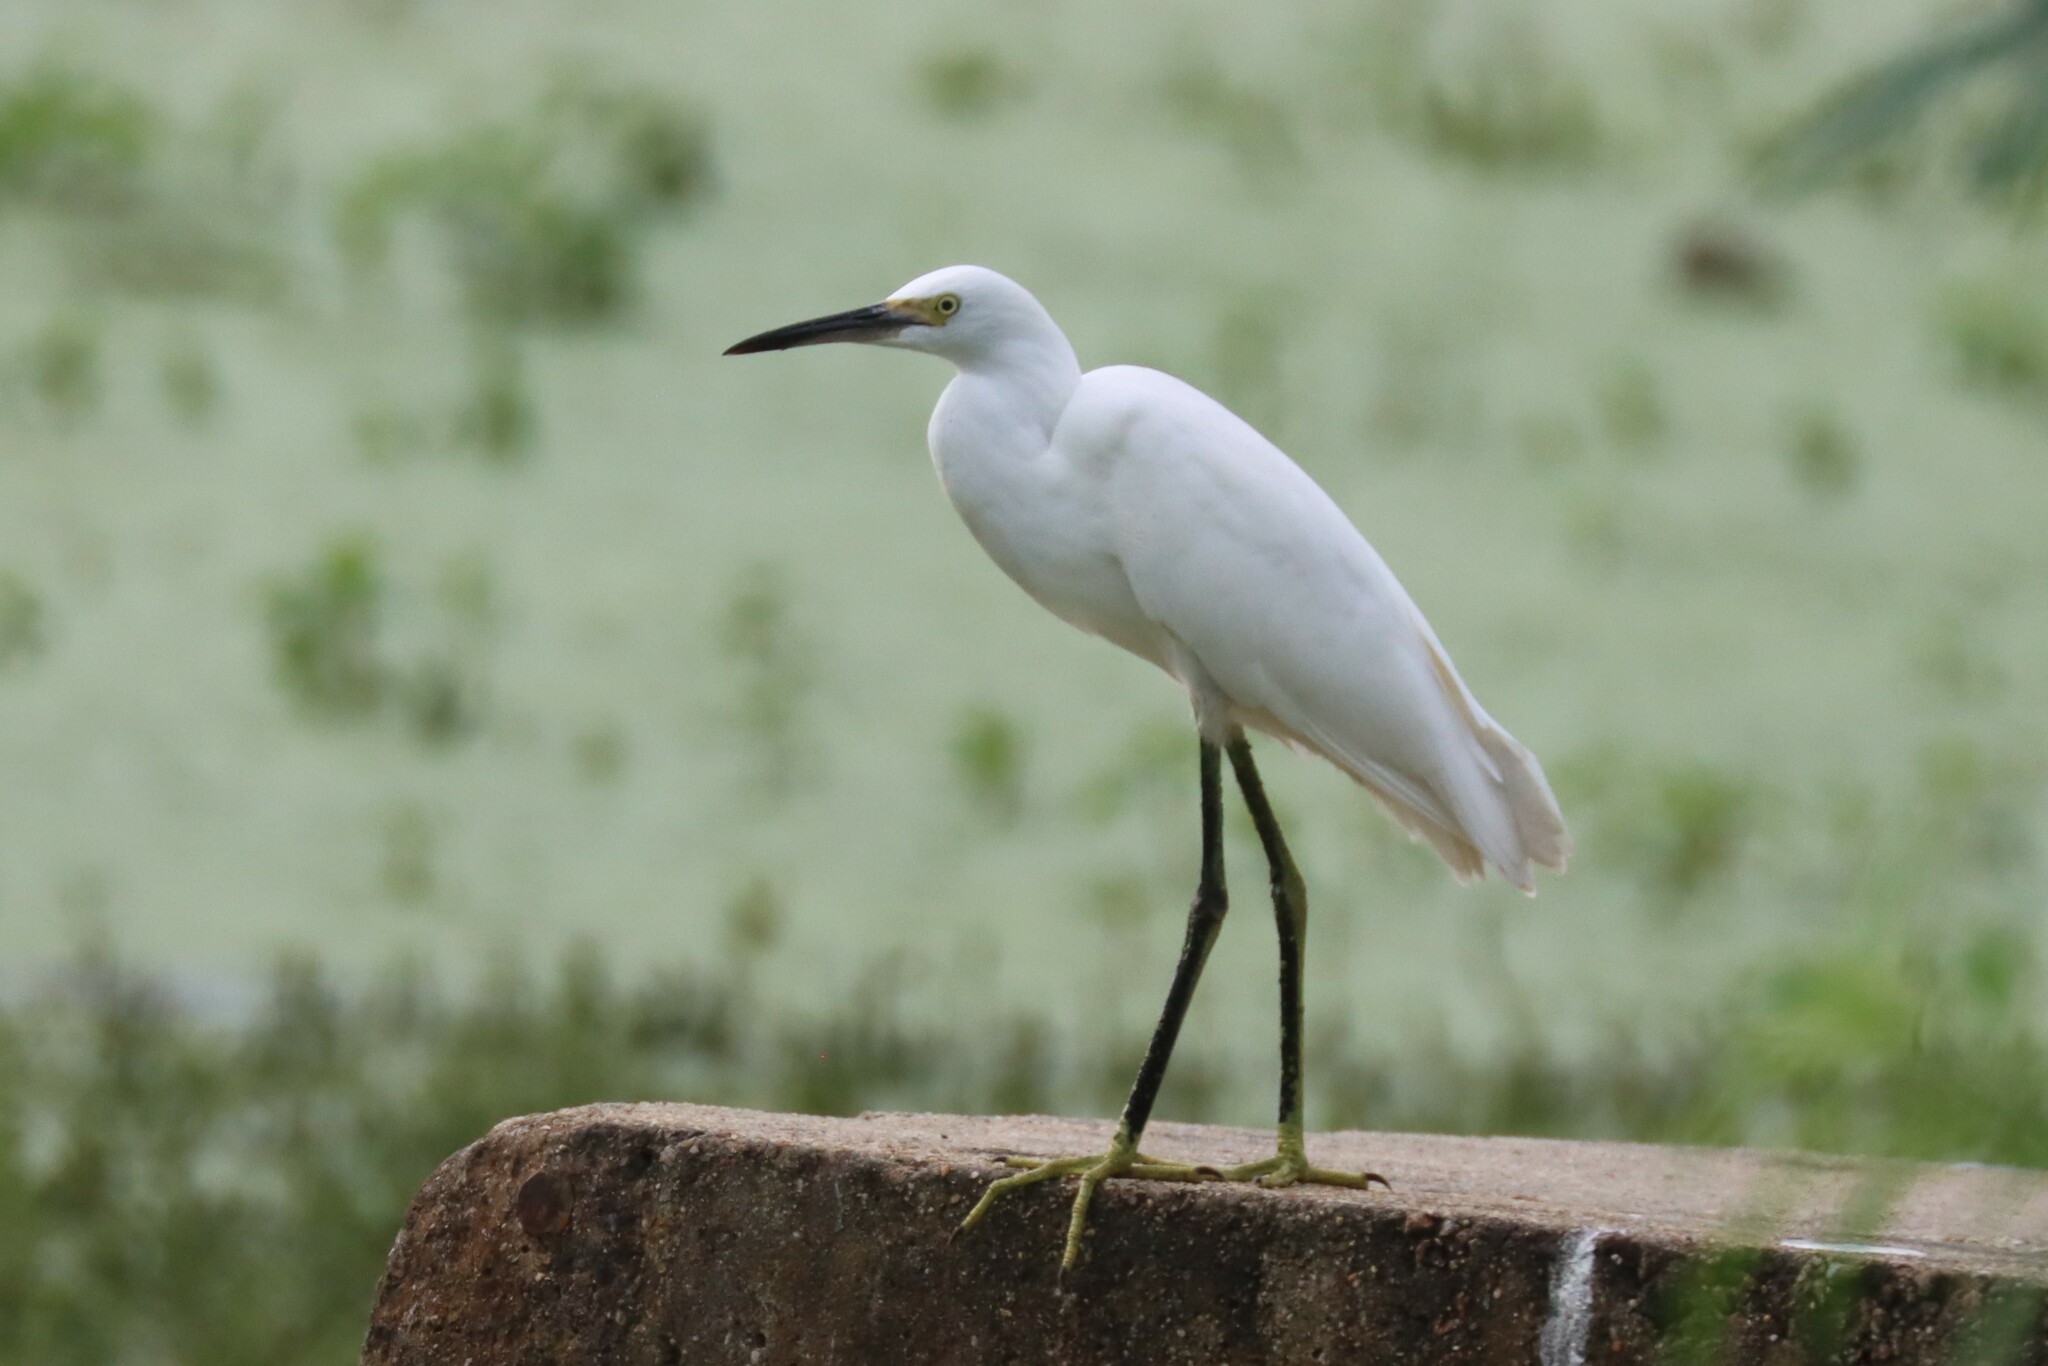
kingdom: Animalia
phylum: Chordata
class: Aves
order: Pelecaniformes
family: Ardeidae
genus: Egretta
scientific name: Egretta thula
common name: Snowy egret
